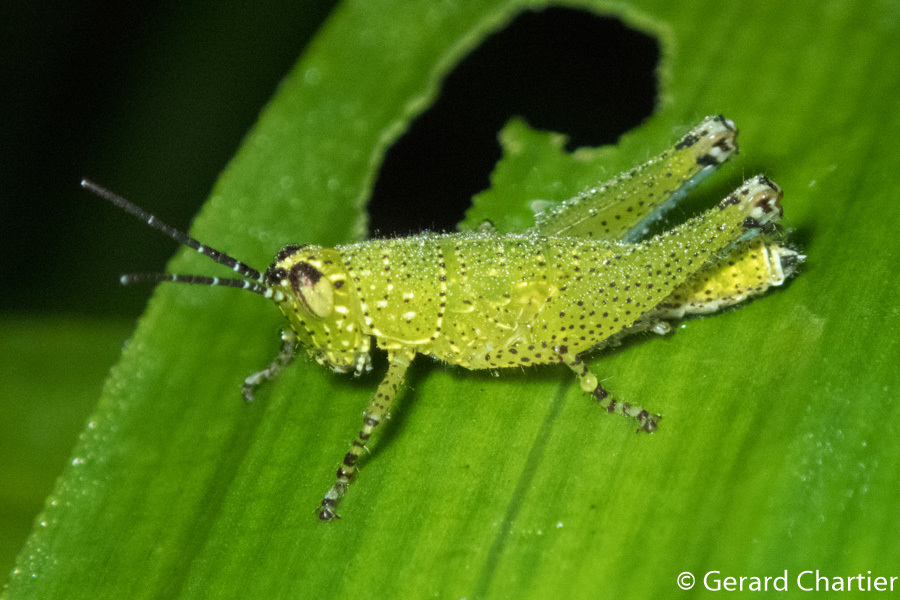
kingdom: Animalia
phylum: Arthropoda
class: Insecta
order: Orthoptera
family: Acrididae
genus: Xenocatantops
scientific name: Xenocatantops humile
